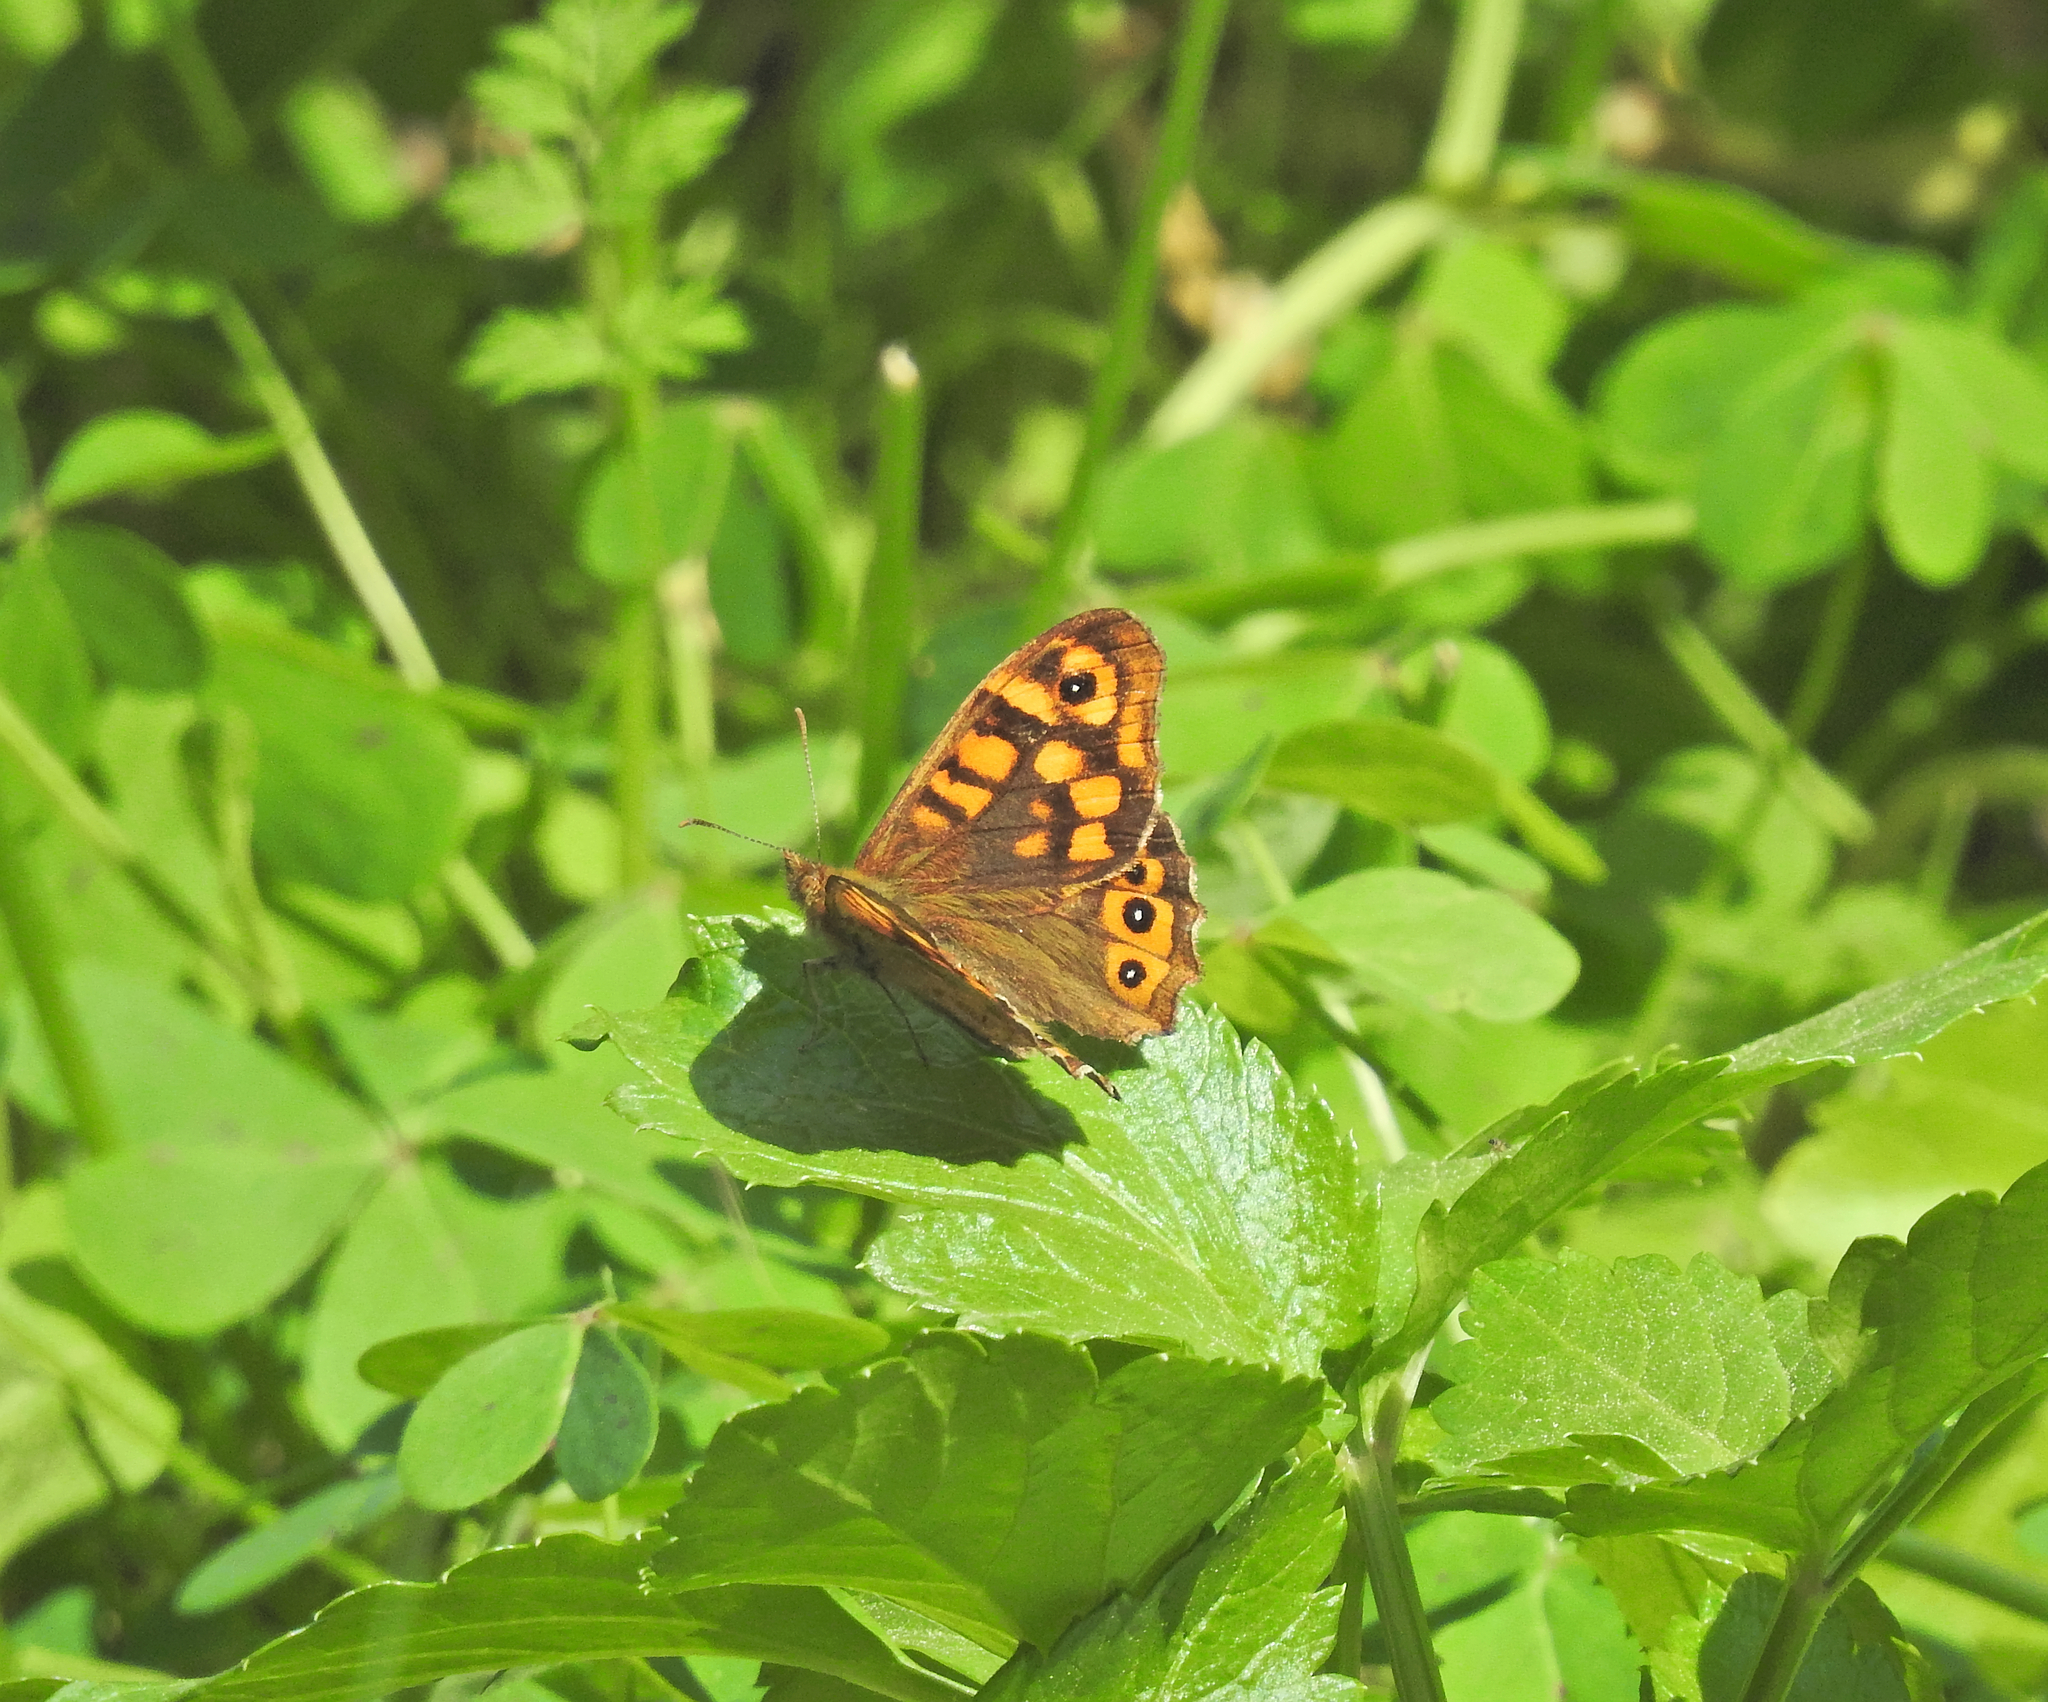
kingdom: Animalia
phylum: Arthropoda
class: Insecta
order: Lepidoptera
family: Nymphalidae
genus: Pararge
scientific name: Pararge aegeria
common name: Speckled wood
